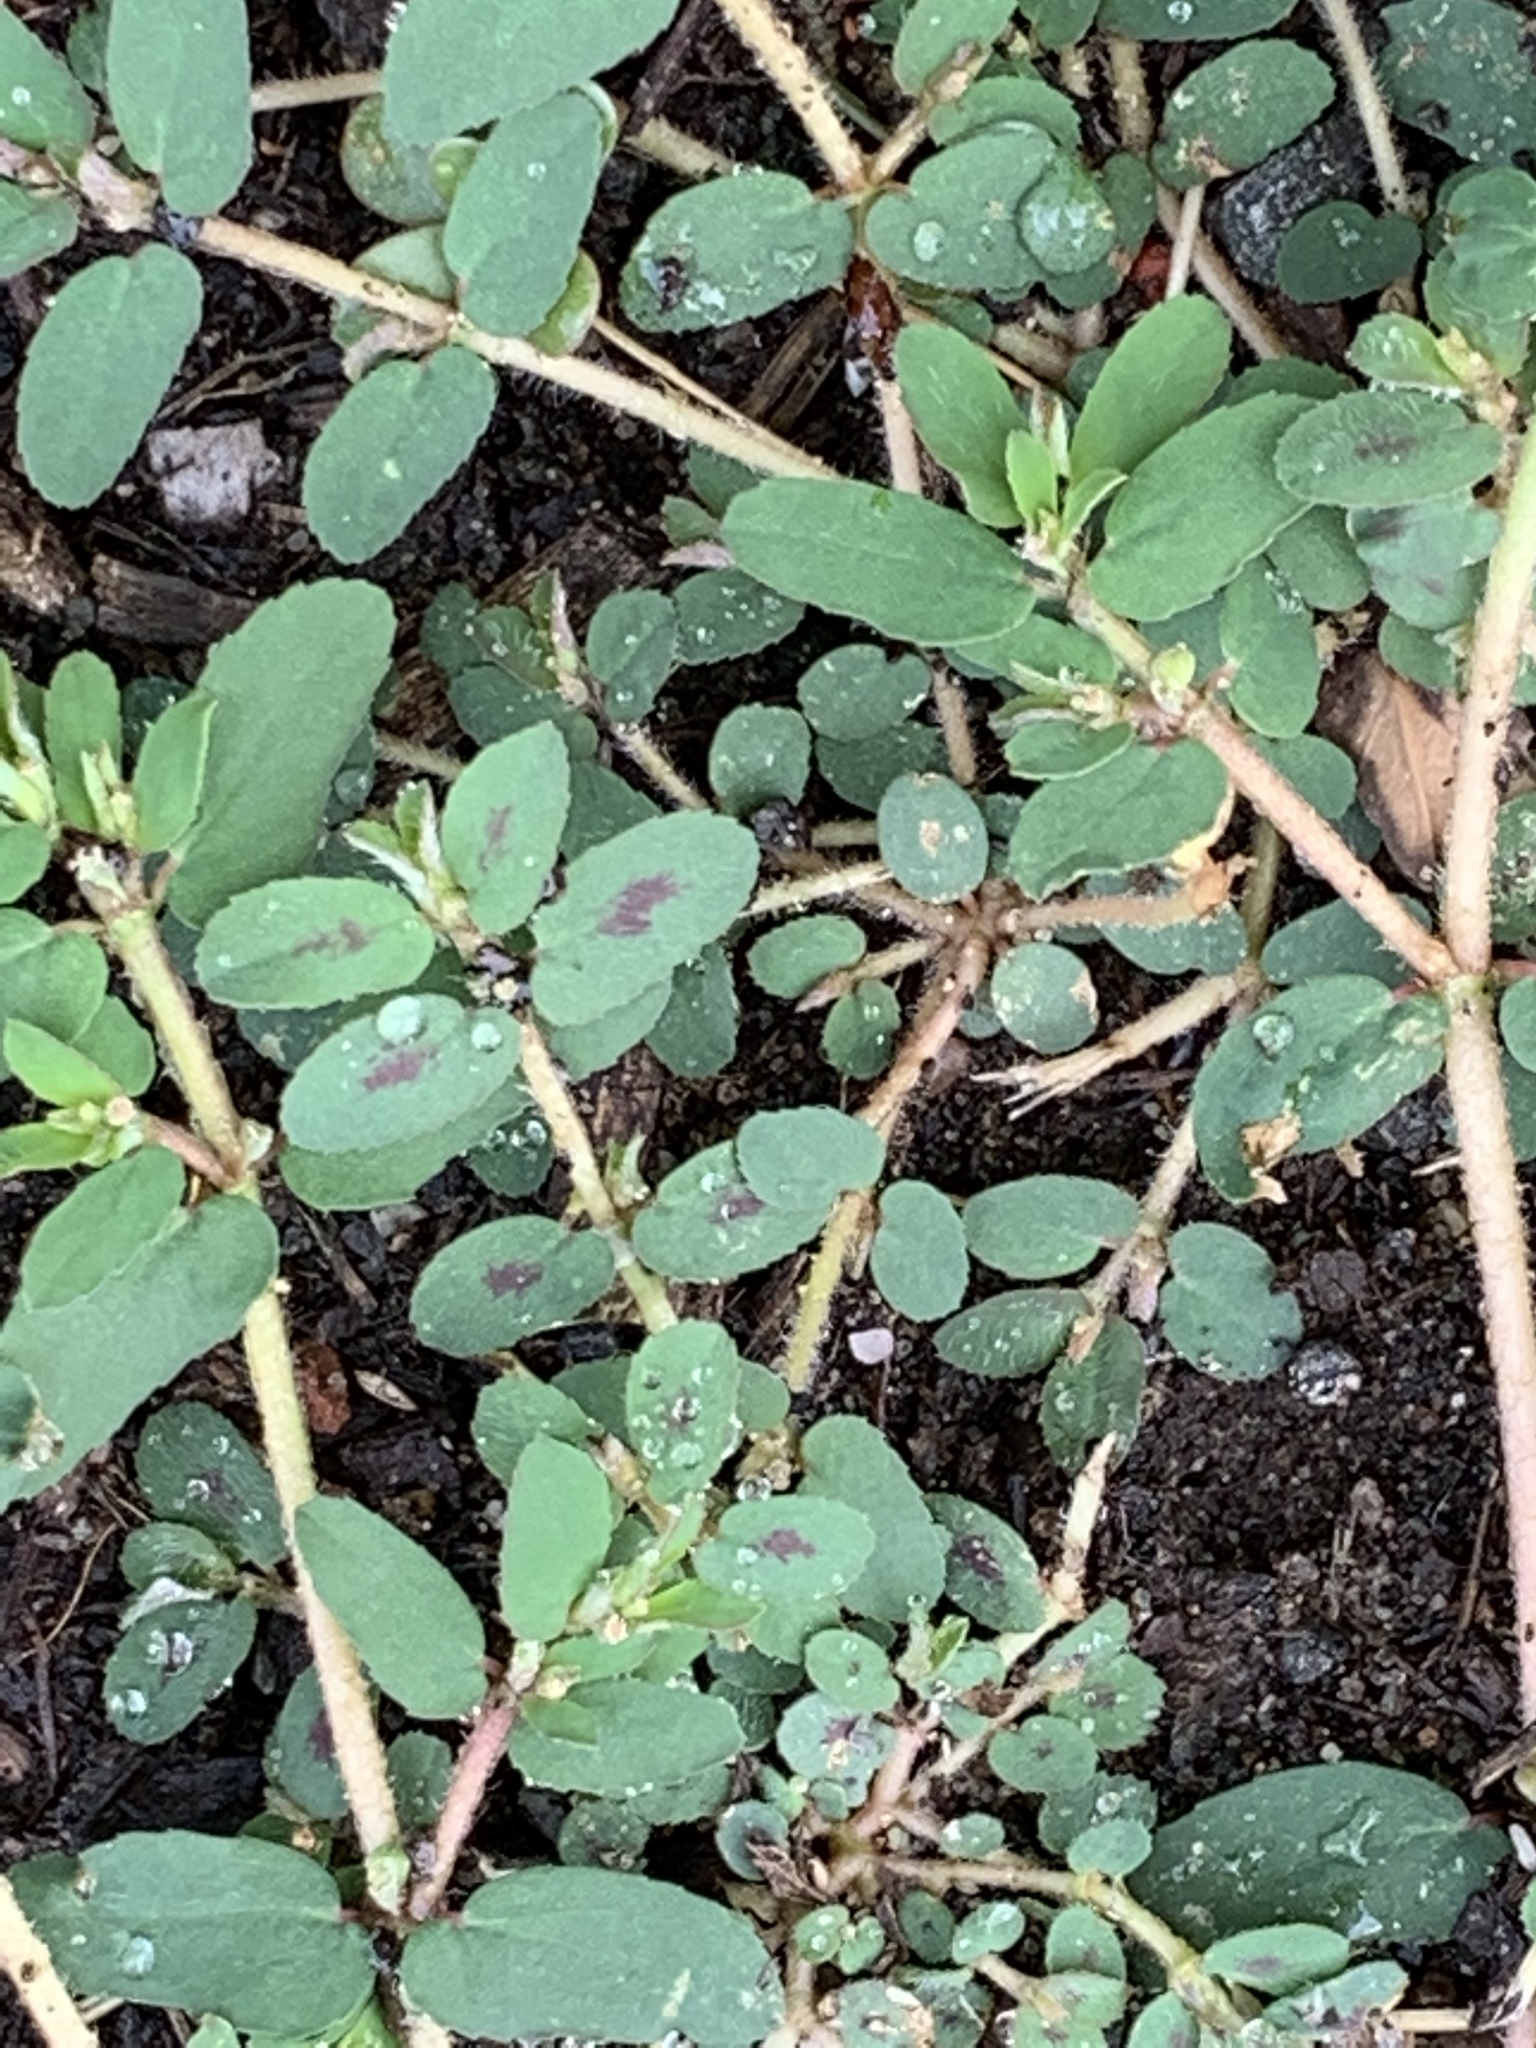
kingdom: Plantae
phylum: Tracheophyta
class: Magnoliopsida
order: Malpighiales
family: Euphorbiaceae
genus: Euphorbia
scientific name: Euphorbia maculata
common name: Spotted spurge
